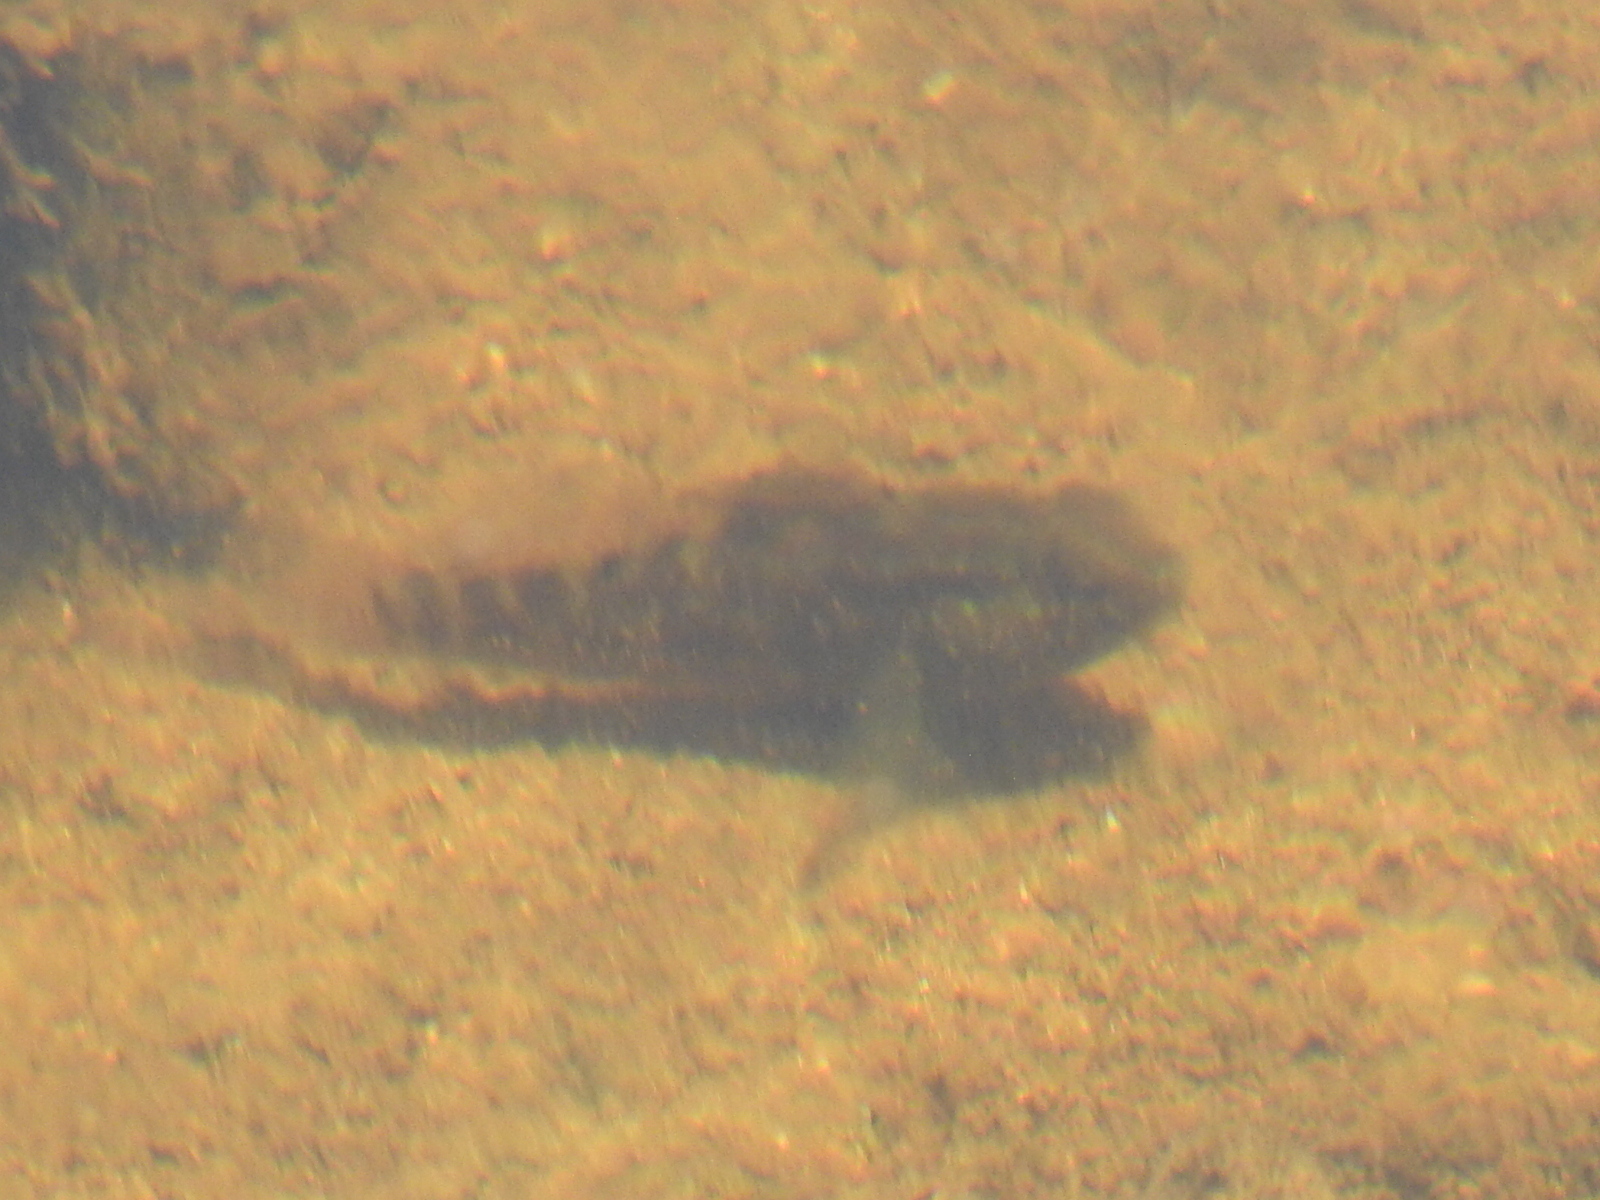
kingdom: Animalia
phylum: Chordata
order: Perciformes
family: Gobiidae
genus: Lophogobius
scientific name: Lophogobius cyprinoides
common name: Crested goby
